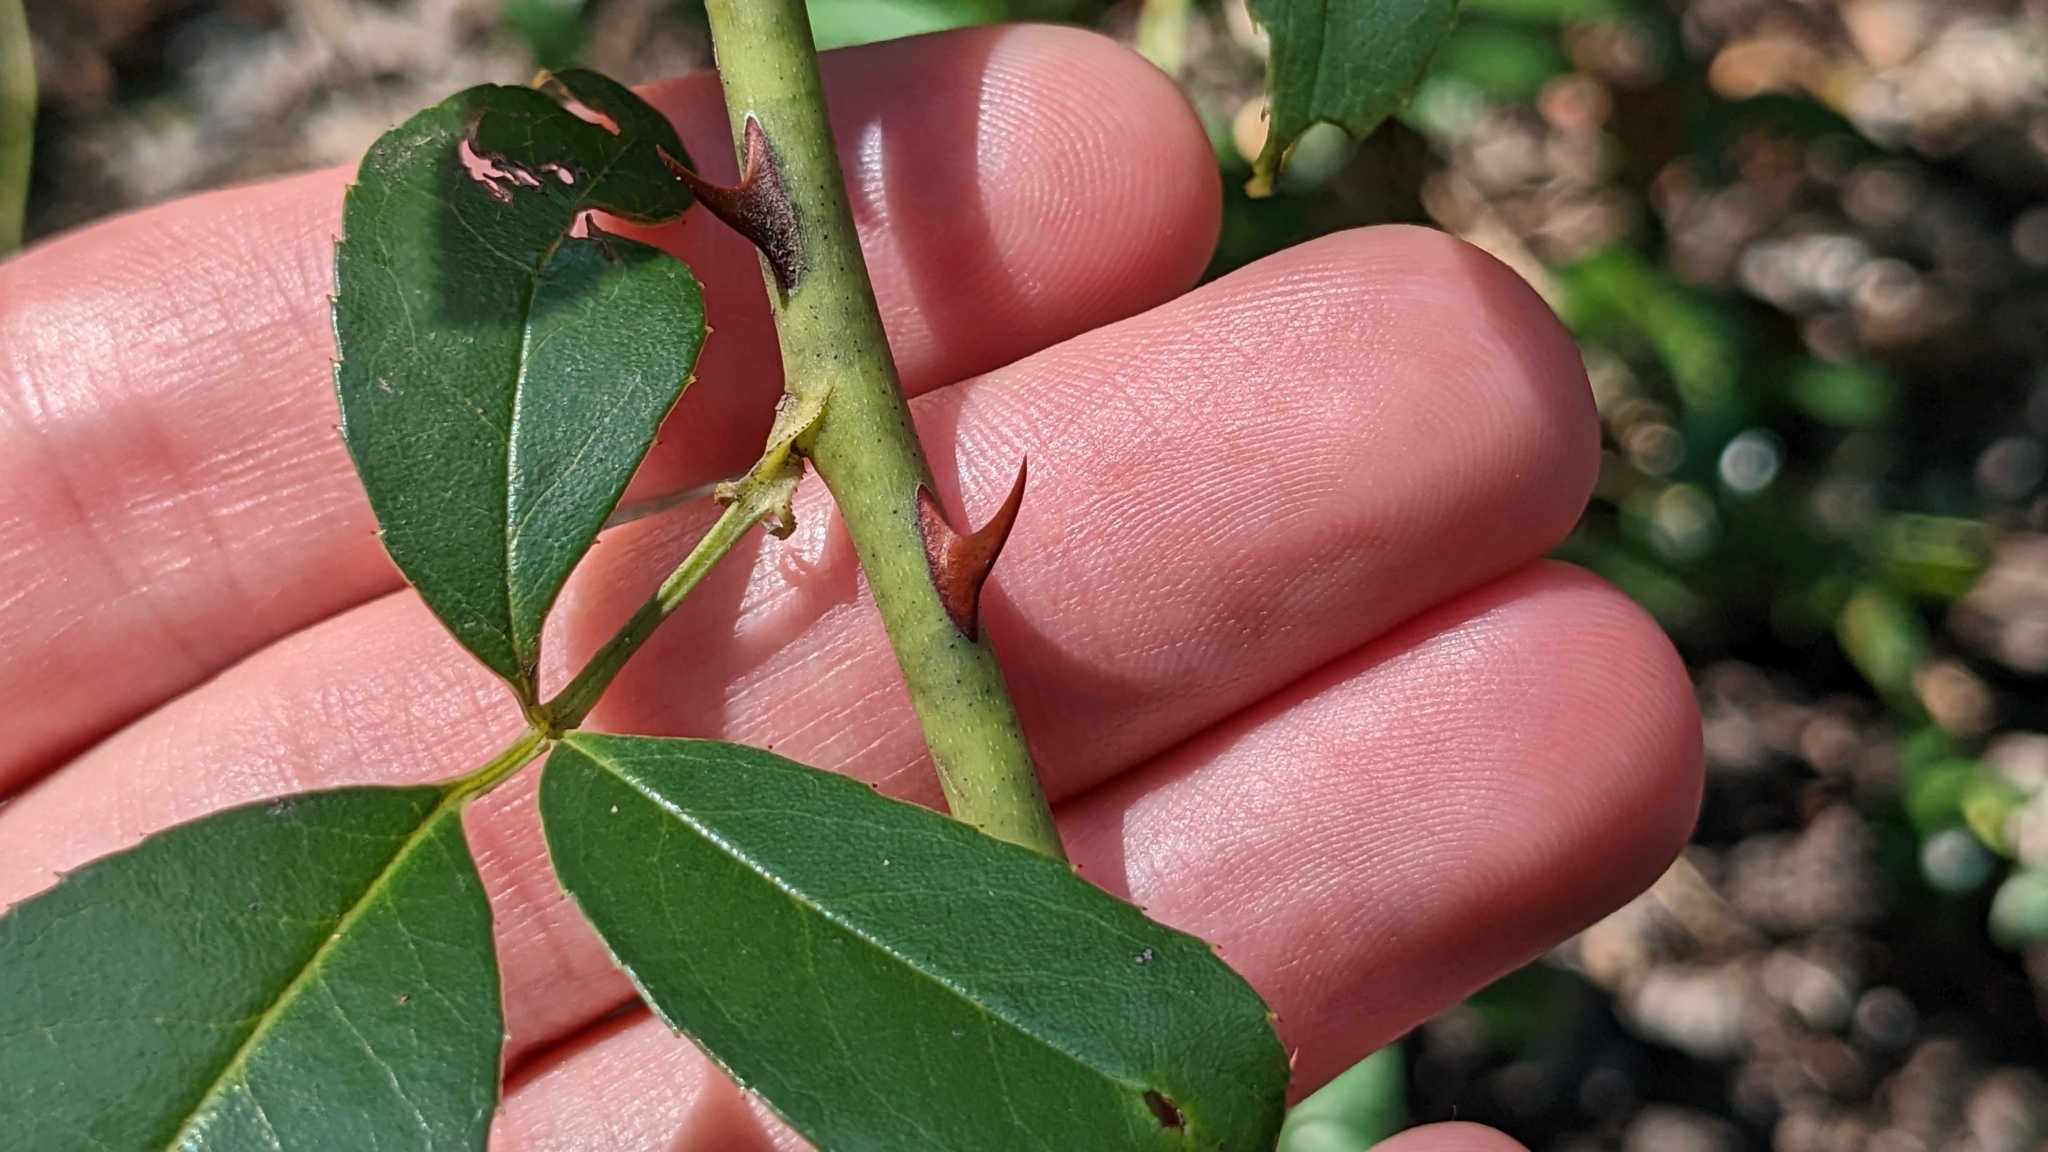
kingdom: Plantae
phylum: Tracheophyta
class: Magnoliopsida
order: Rosales
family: Rosaceae
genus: Rosa
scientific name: Rosa laevigata
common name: Cherokee rose
